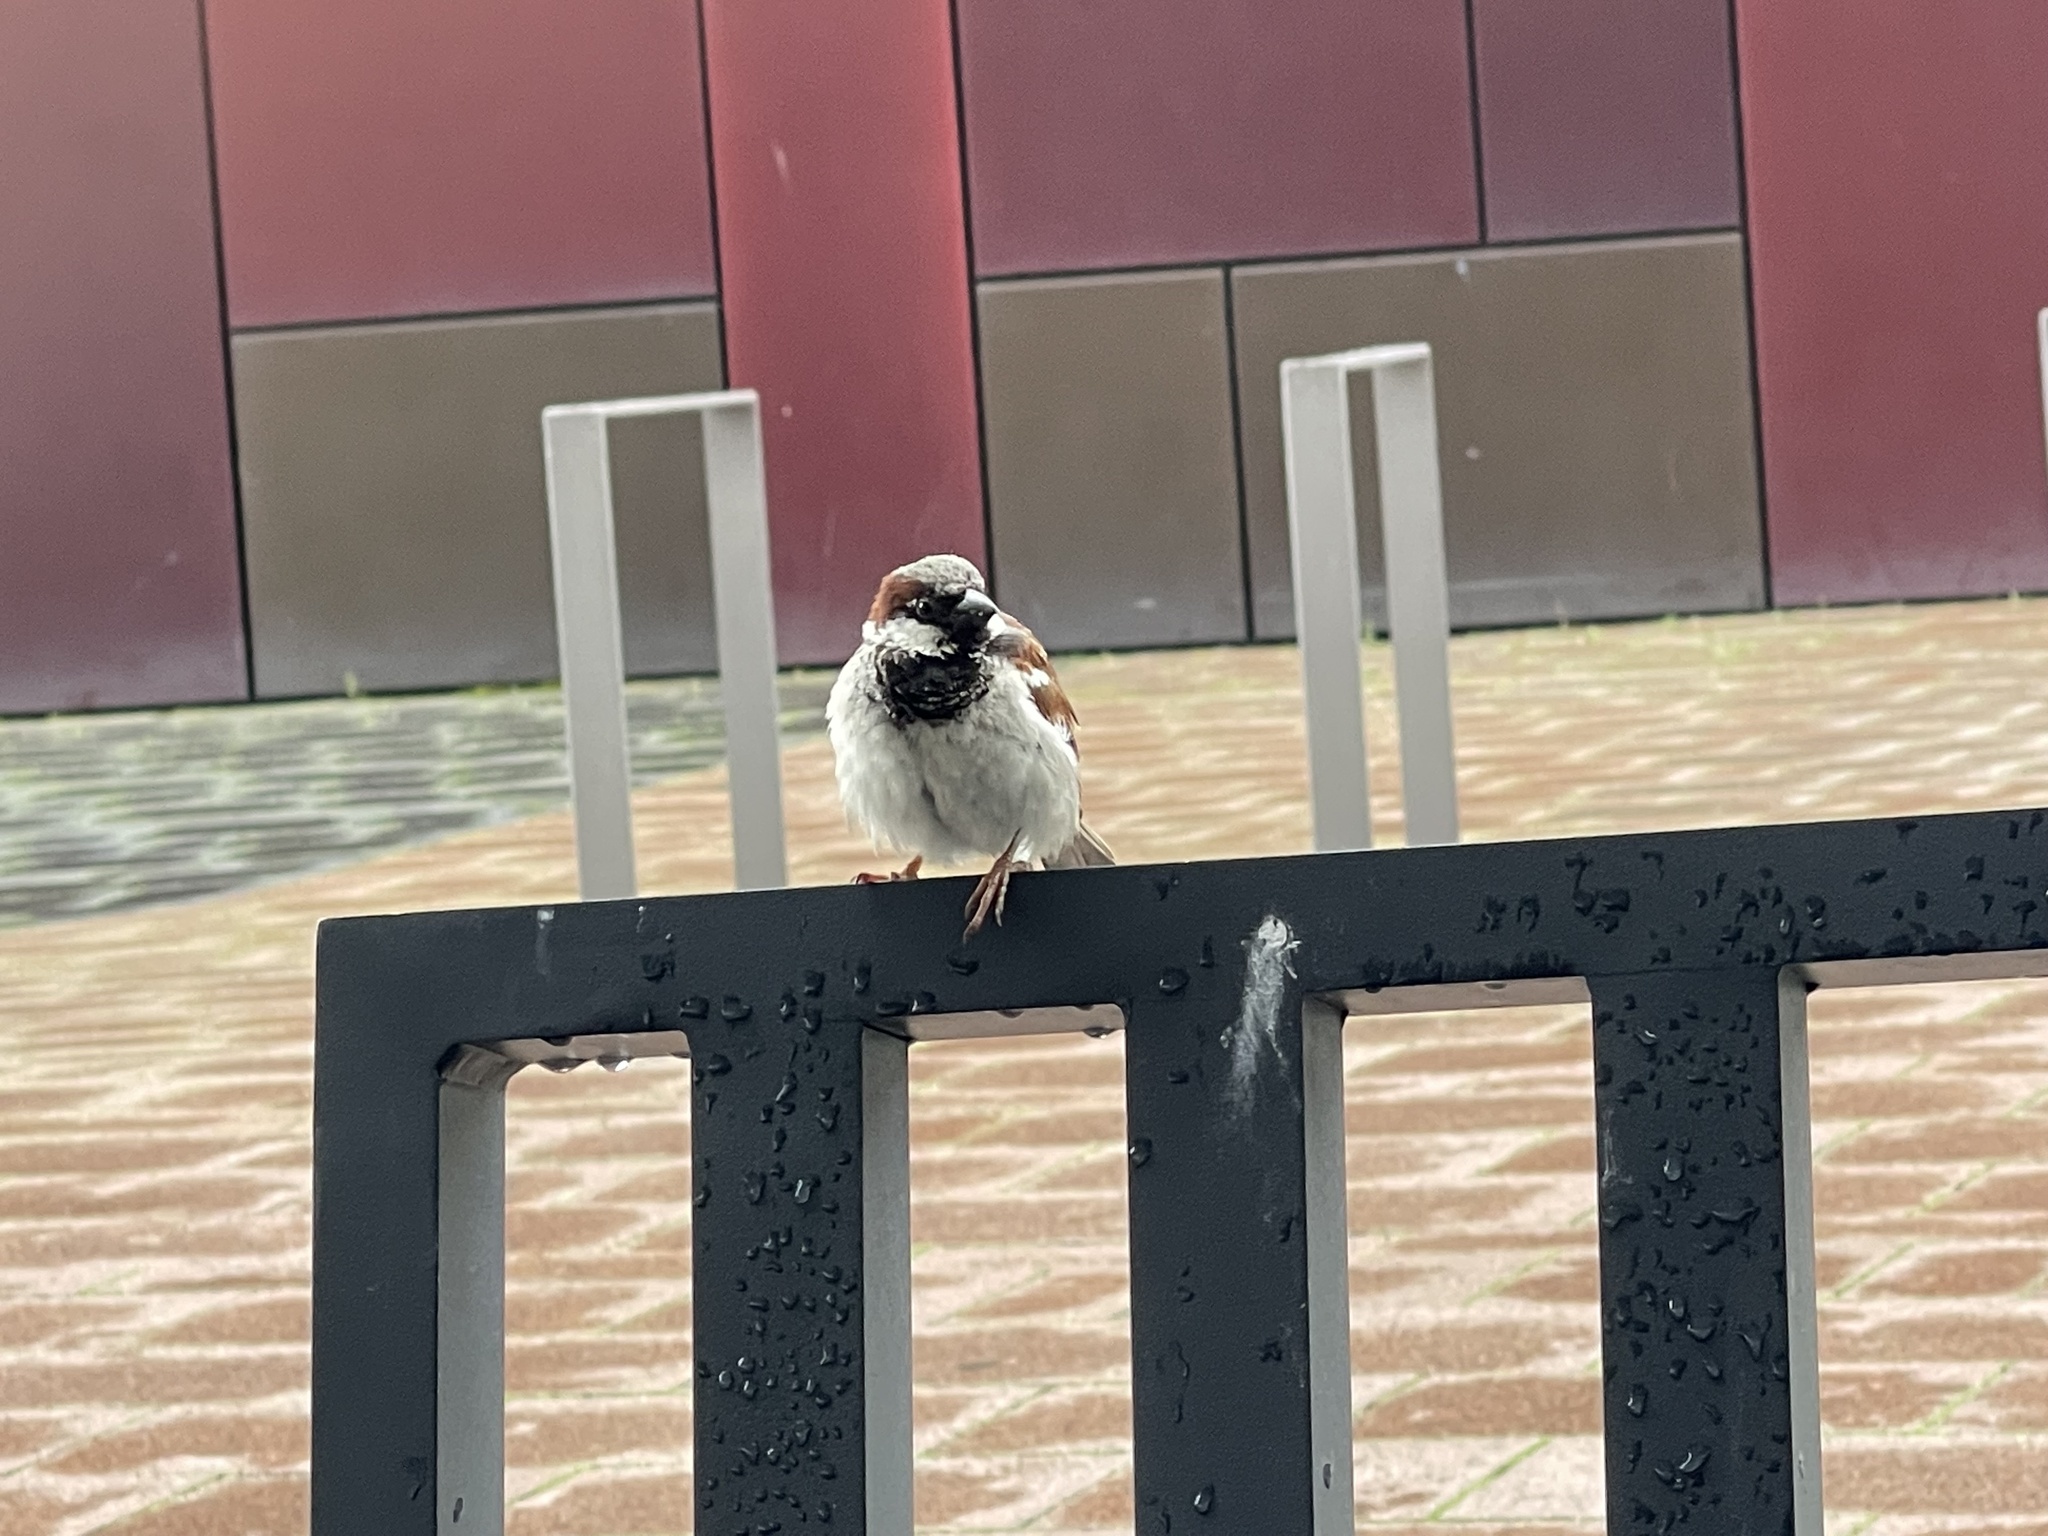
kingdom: Animalia
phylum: Chordata
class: Aves
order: Passeriformes
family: Passeridae
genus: Passer
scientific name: Passer domesticus
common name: House sparrow
